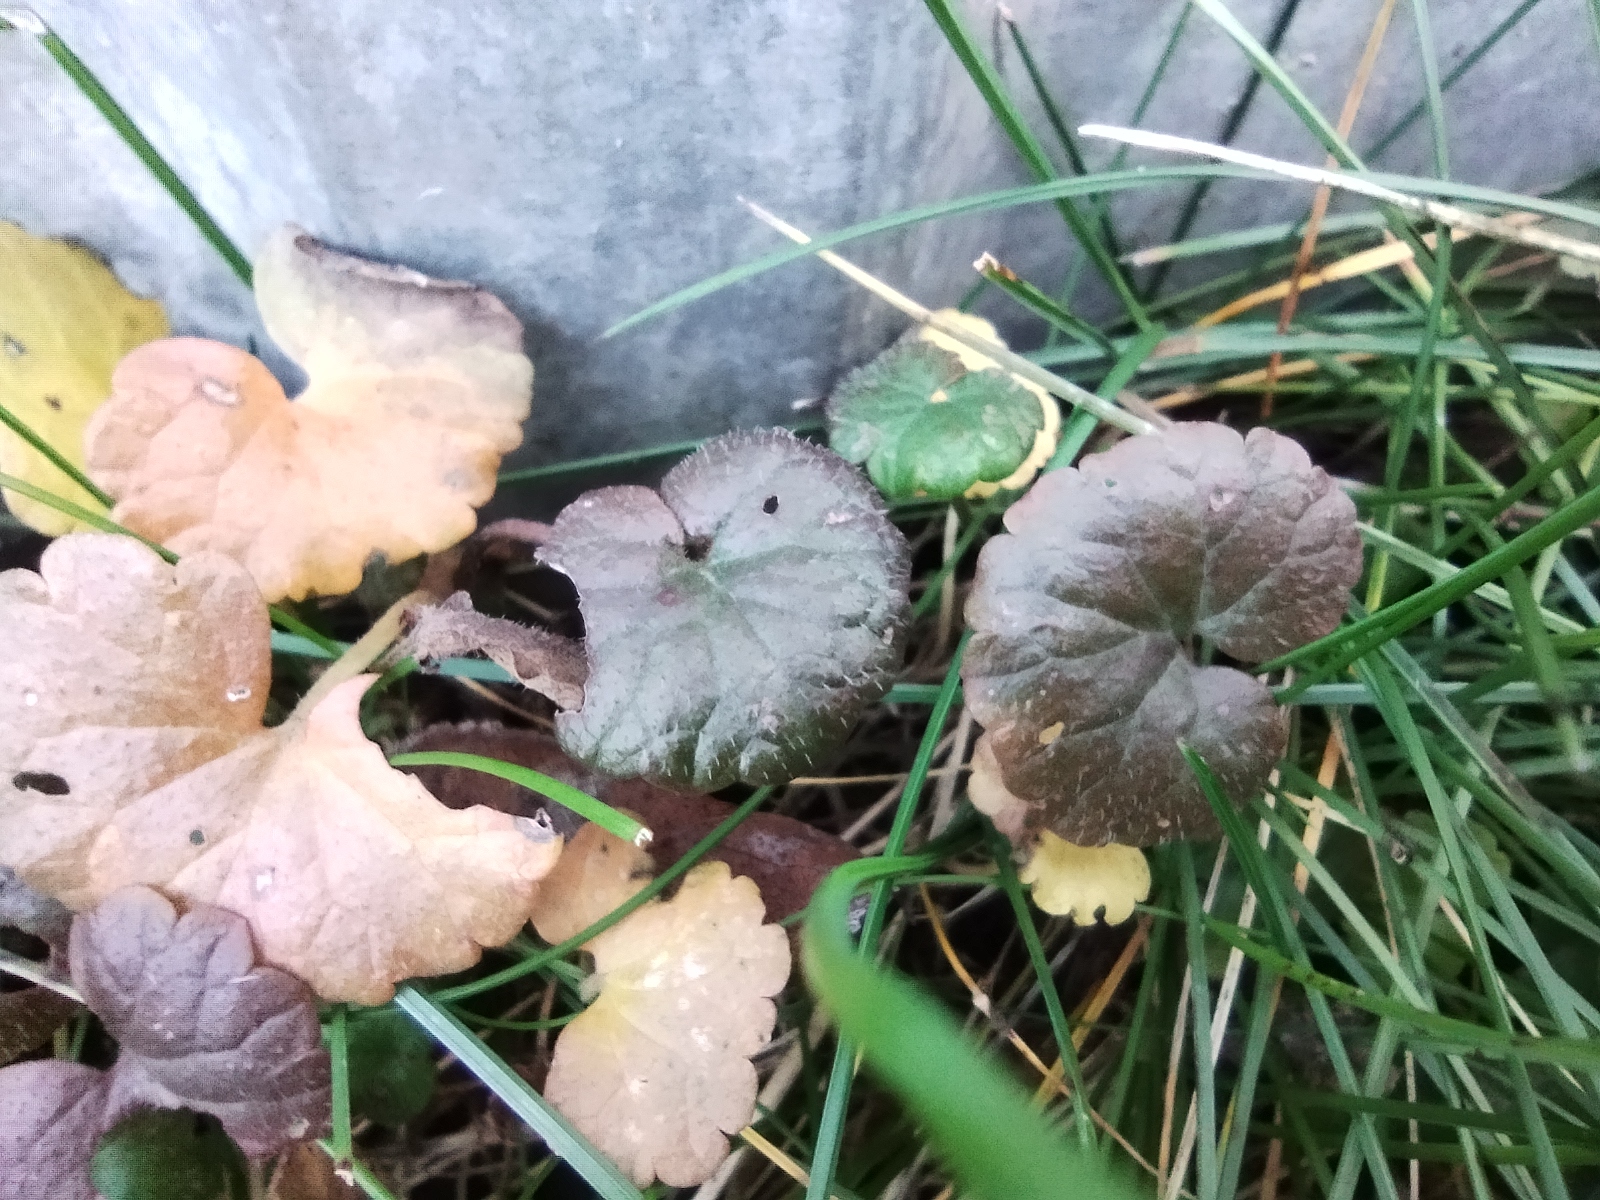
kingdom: Plantae
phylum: Tracheophyta
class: Magnoliopsida
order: Lamiales
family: Lamiaceae
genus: Glechoma
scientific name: Glechoma hederacea
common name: Ground ivy
